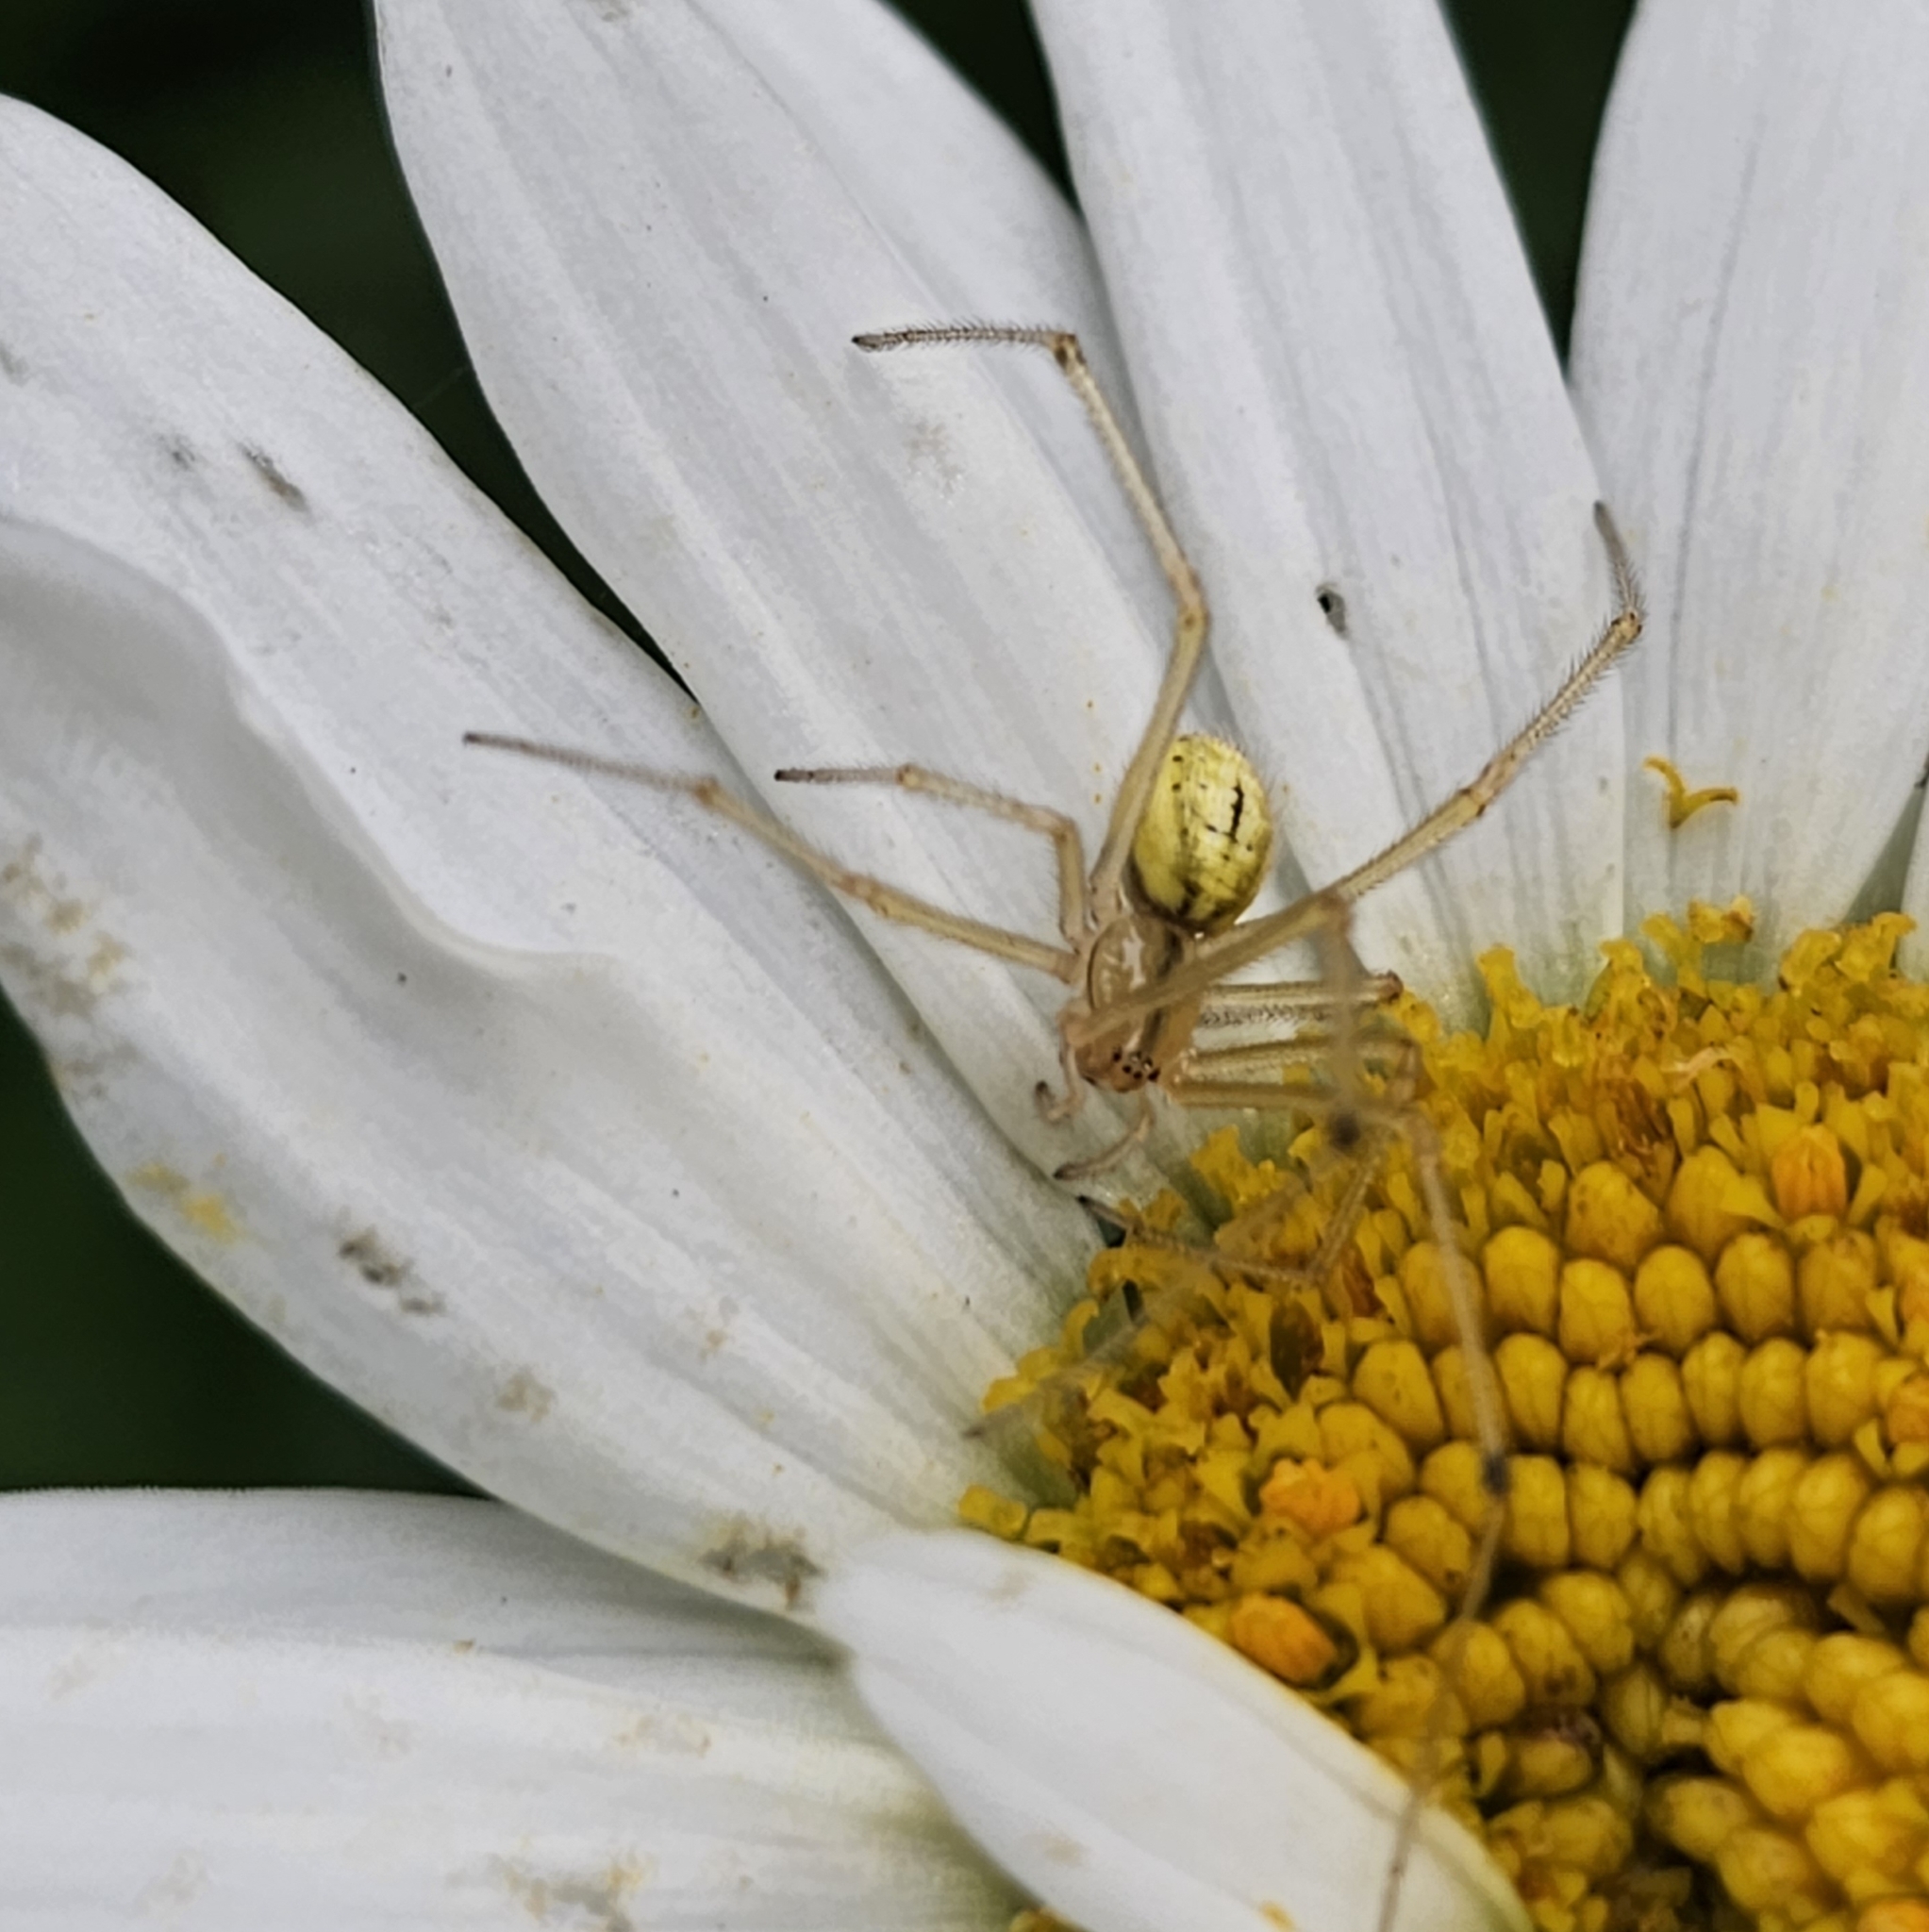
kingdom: Animalia
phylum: Arthropoda
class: Arachnida
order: Araneae
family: Theridiidae
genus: Enoplognatha
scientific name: Enoplognatha ovata
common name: Common candy-striped spider
